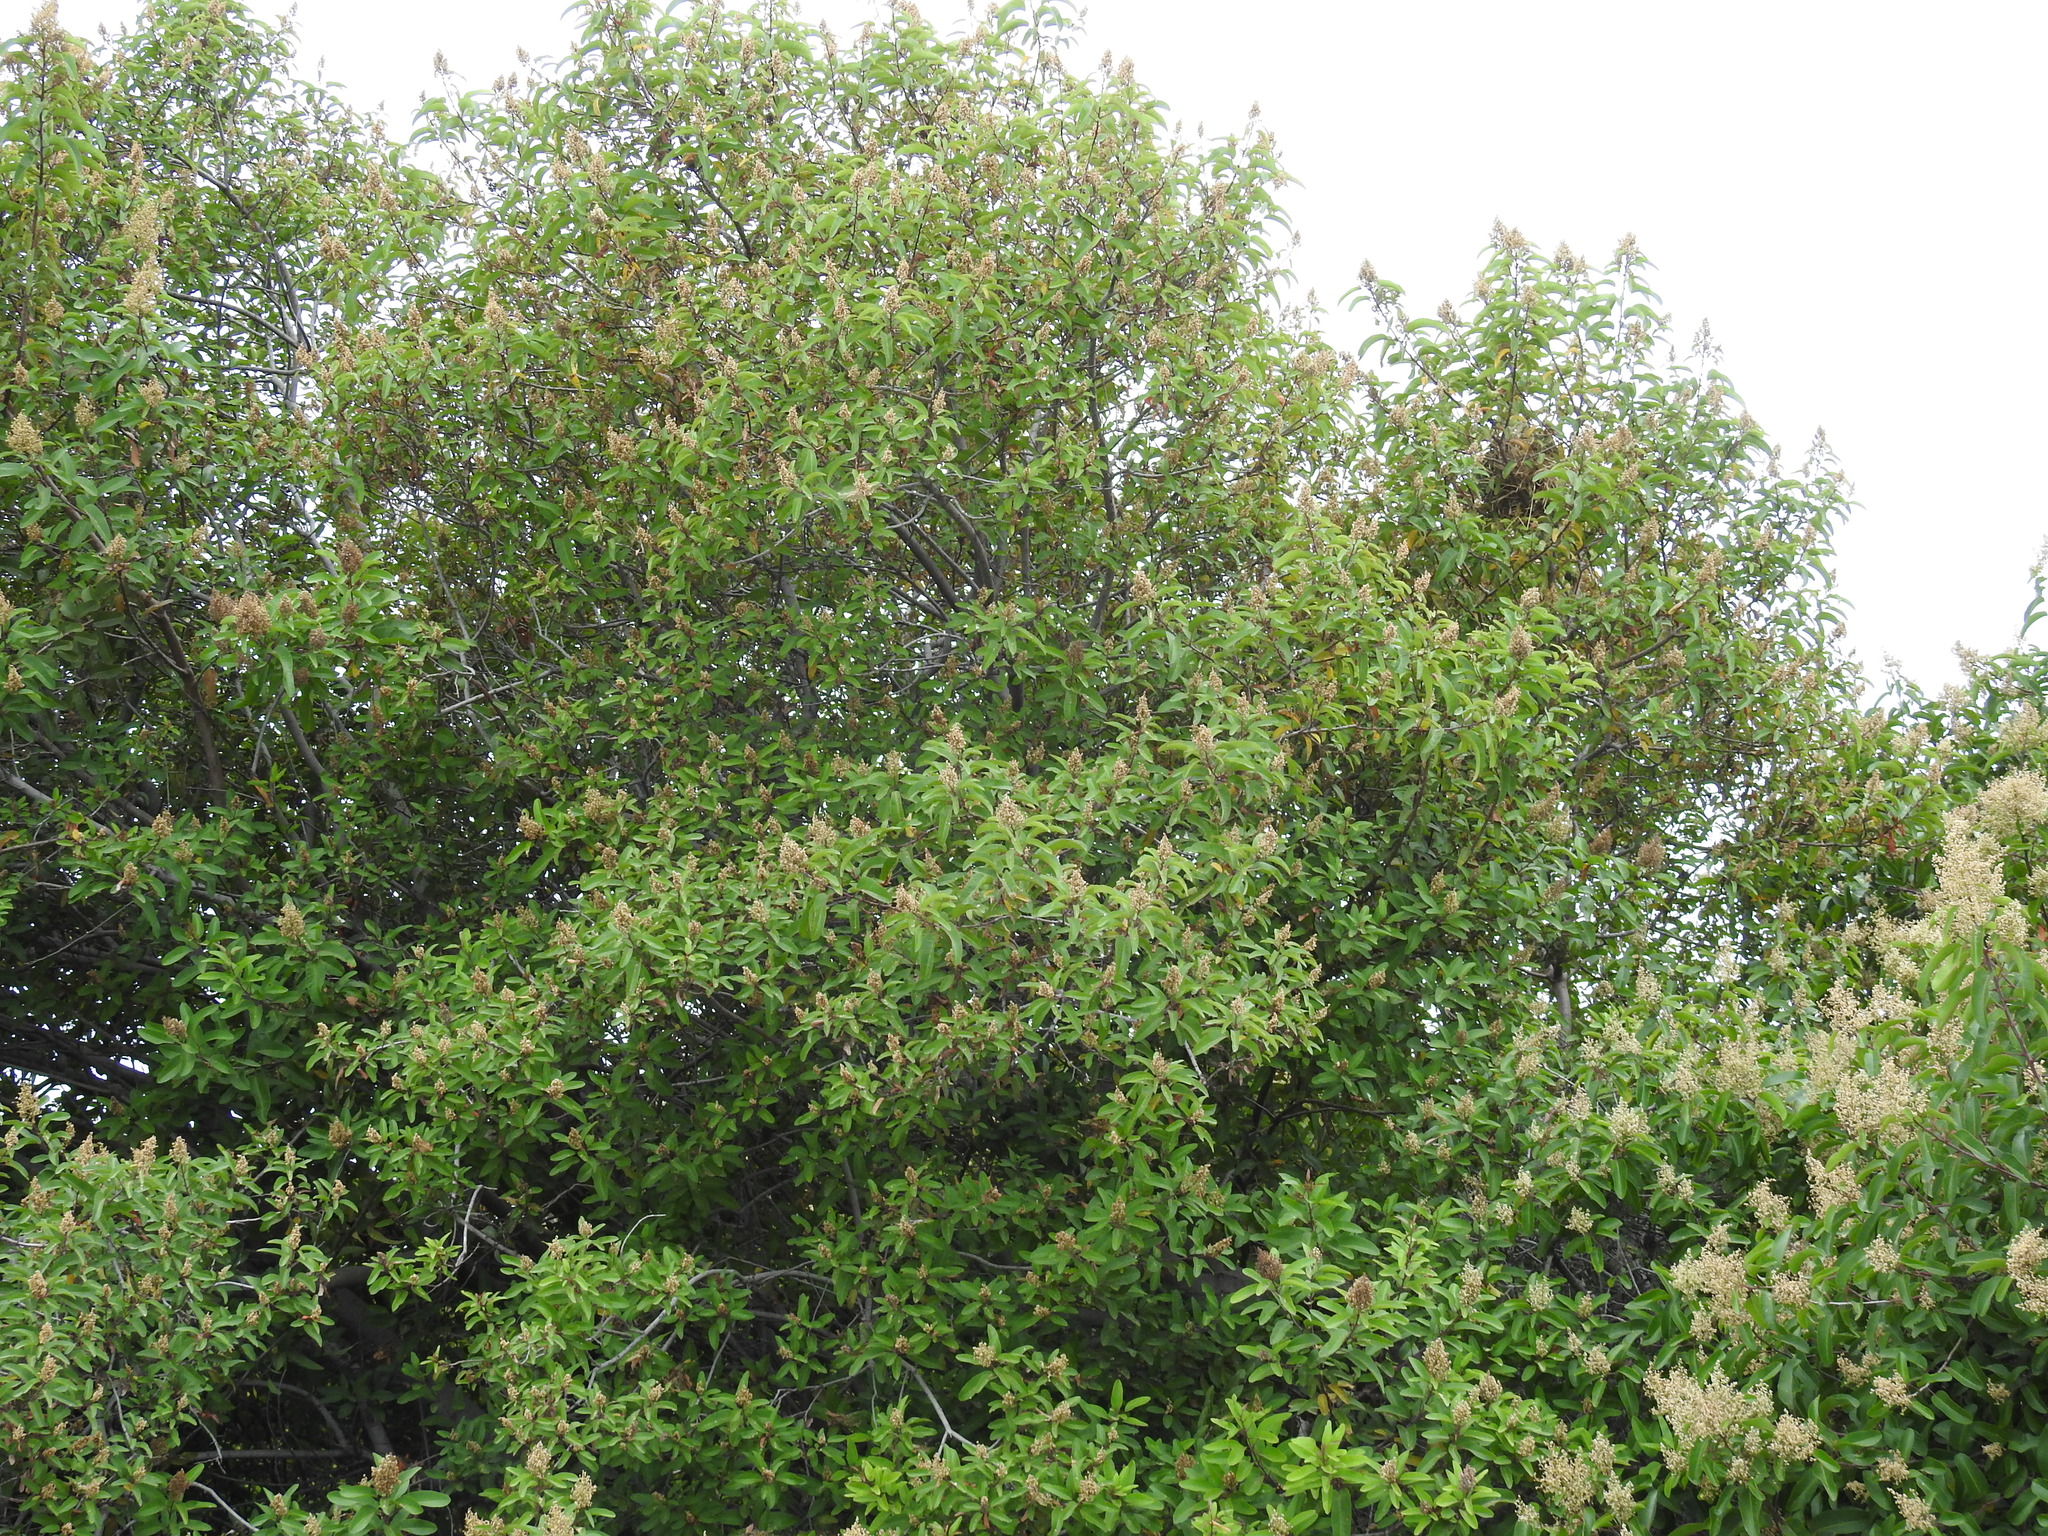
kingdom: Animalia
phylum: Chordata
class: Aves
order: Passeriformes
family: Estrildidae
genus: Lonchura
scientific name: Lonchura punctulata
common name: Scaly-breasted munia
